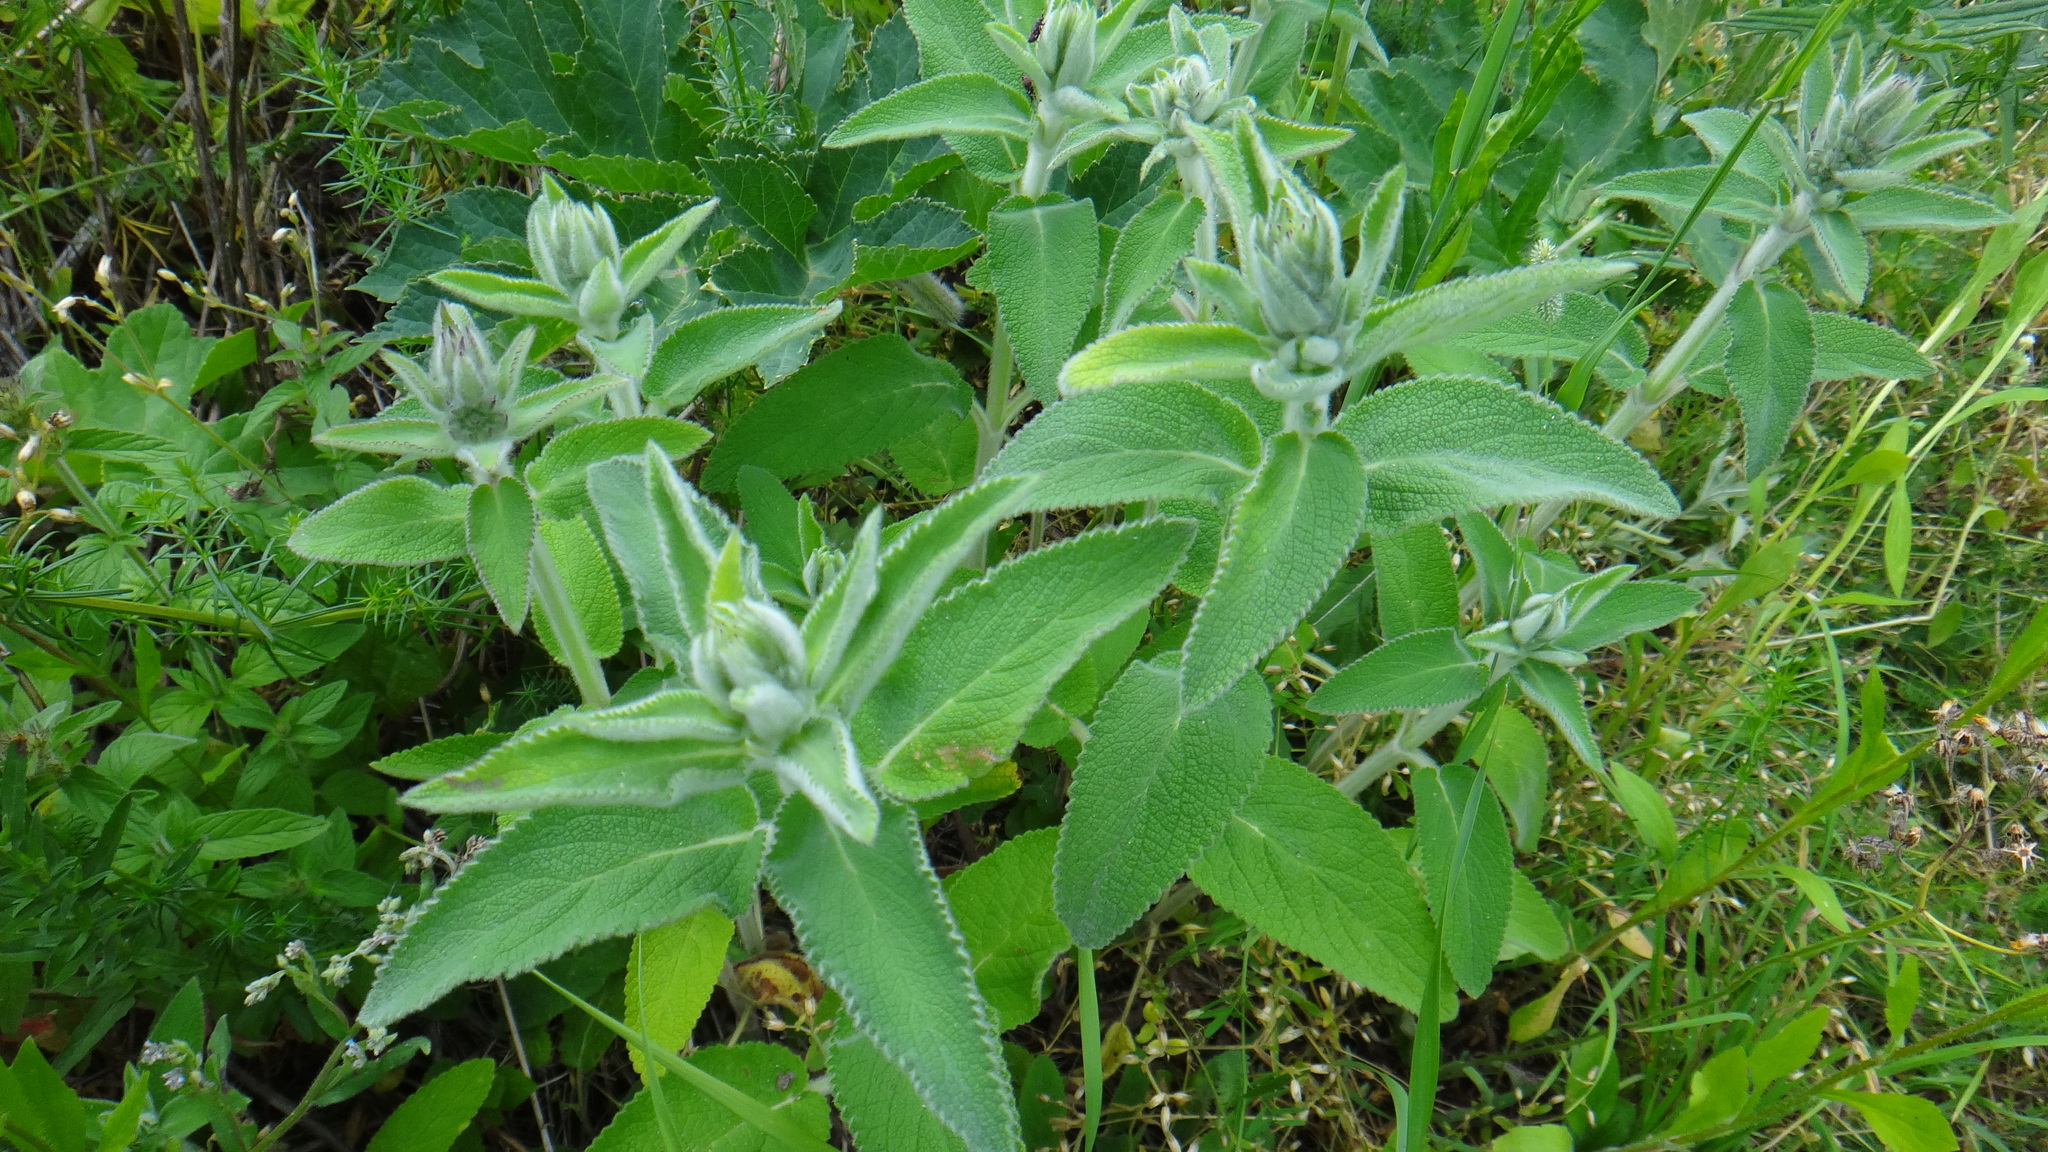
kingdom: Plantae
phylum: Tracheophyta
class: Magnoliopsida
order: Lamiales
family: Lamiaceae
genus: Stachys
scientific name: Stachys germanica
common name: Downy woundwort
